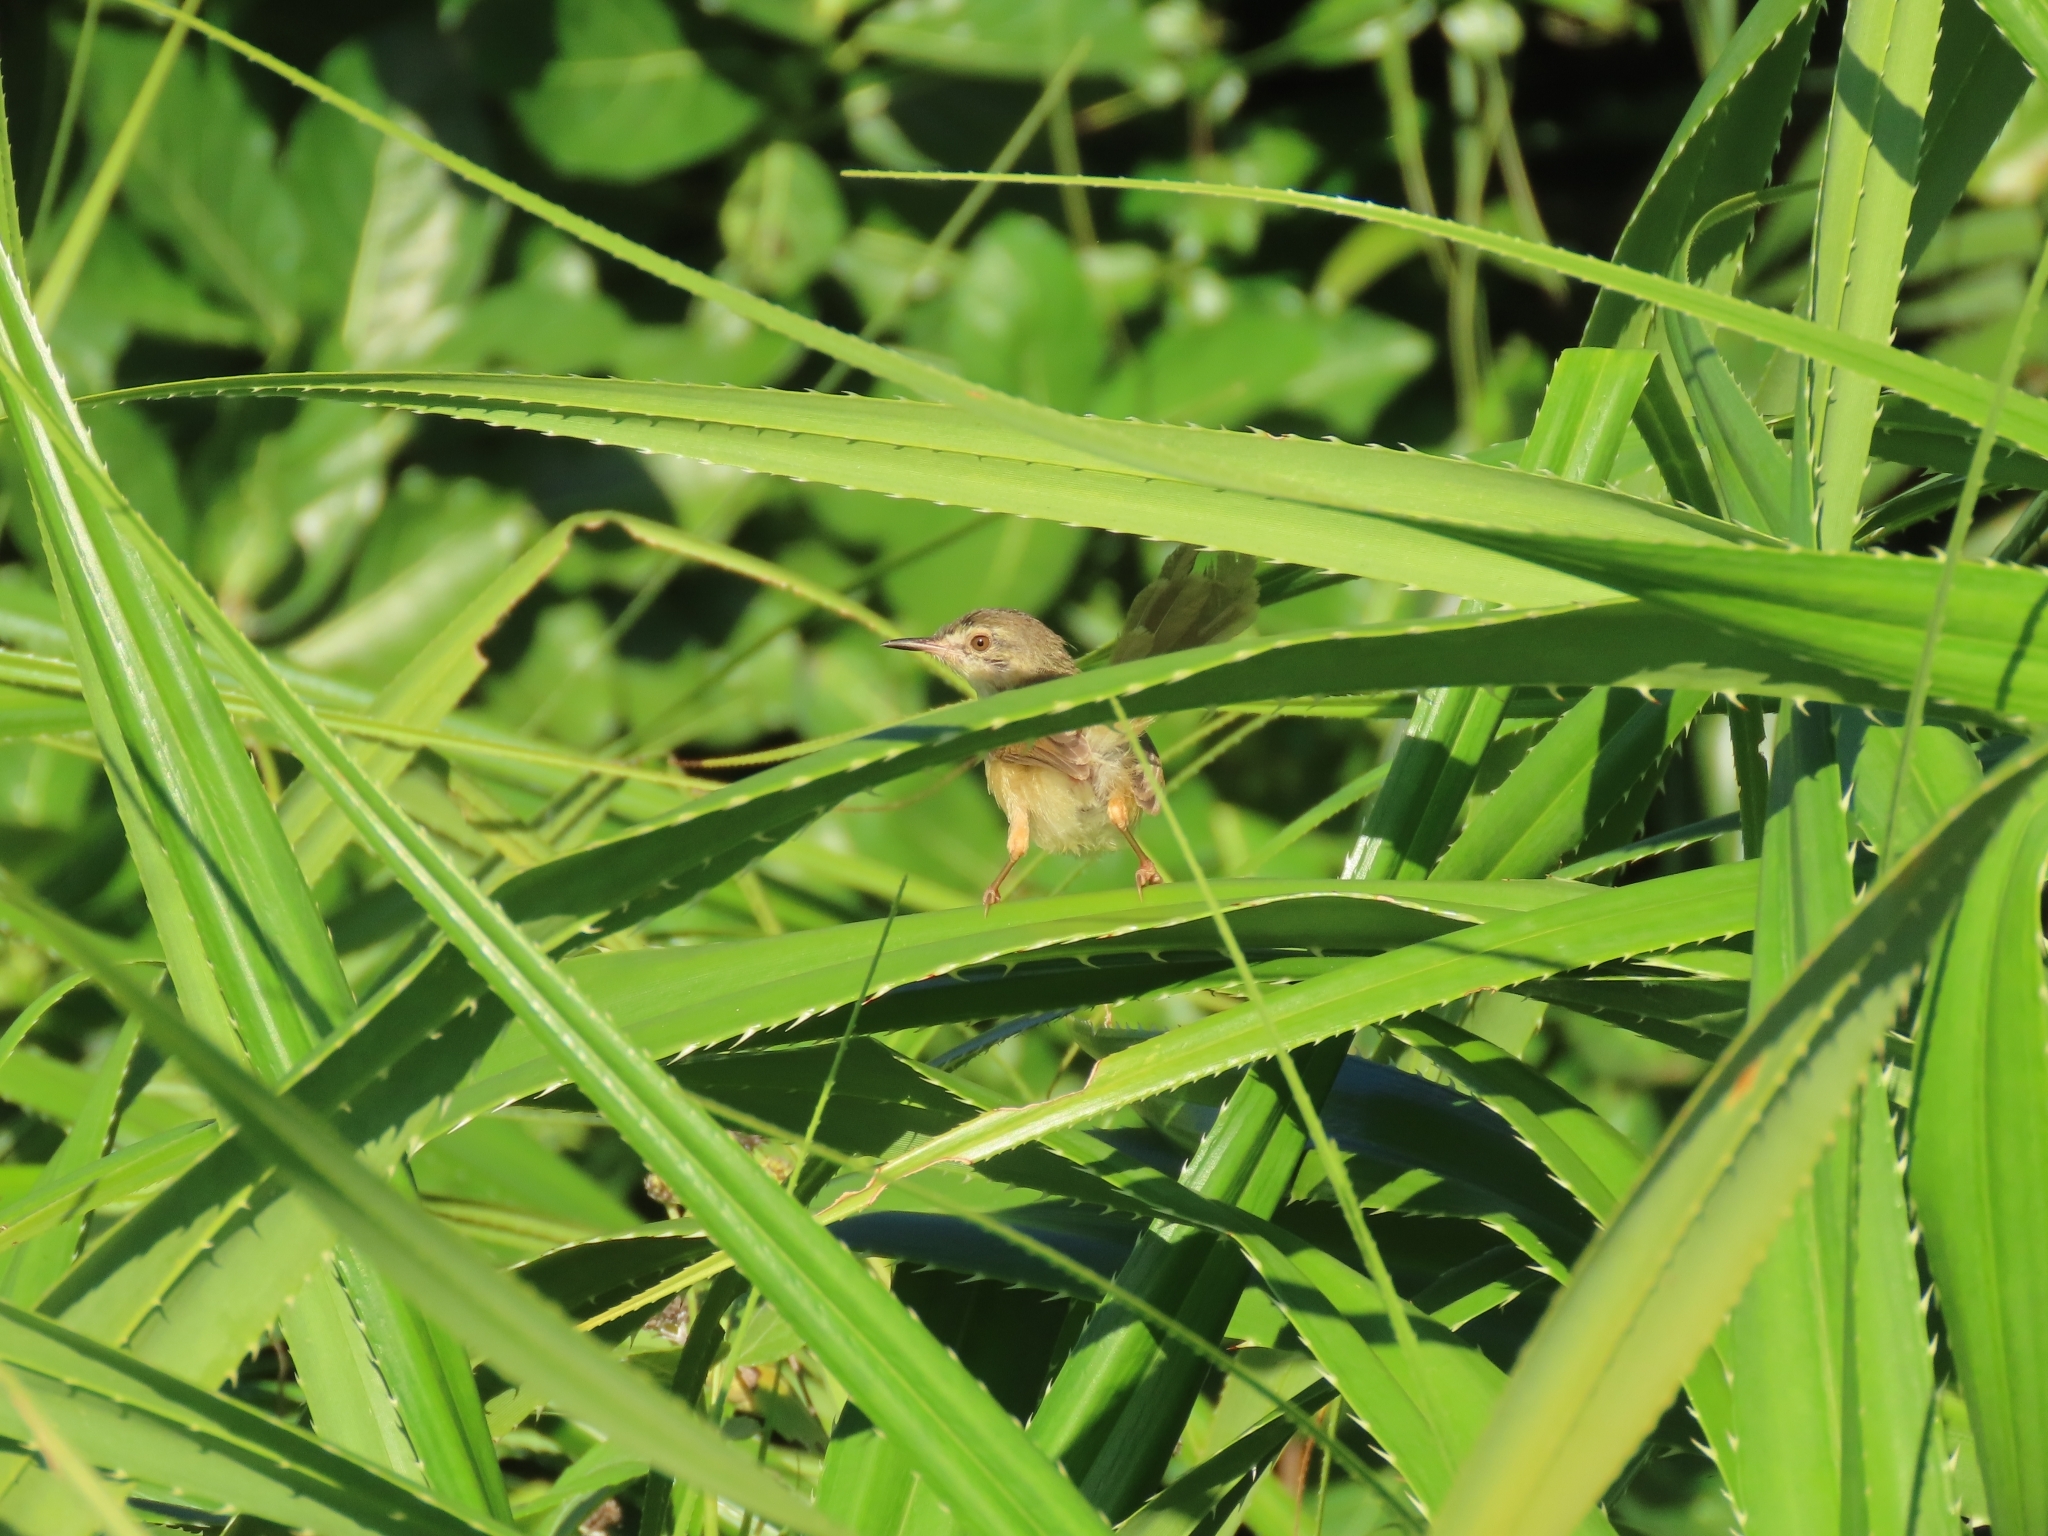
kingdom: Animalia
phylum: Chordata
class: Aves
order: Passeriformes
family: Cisticolidae
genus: Prinia
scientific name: Prinia inornata
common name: Plain prinia
